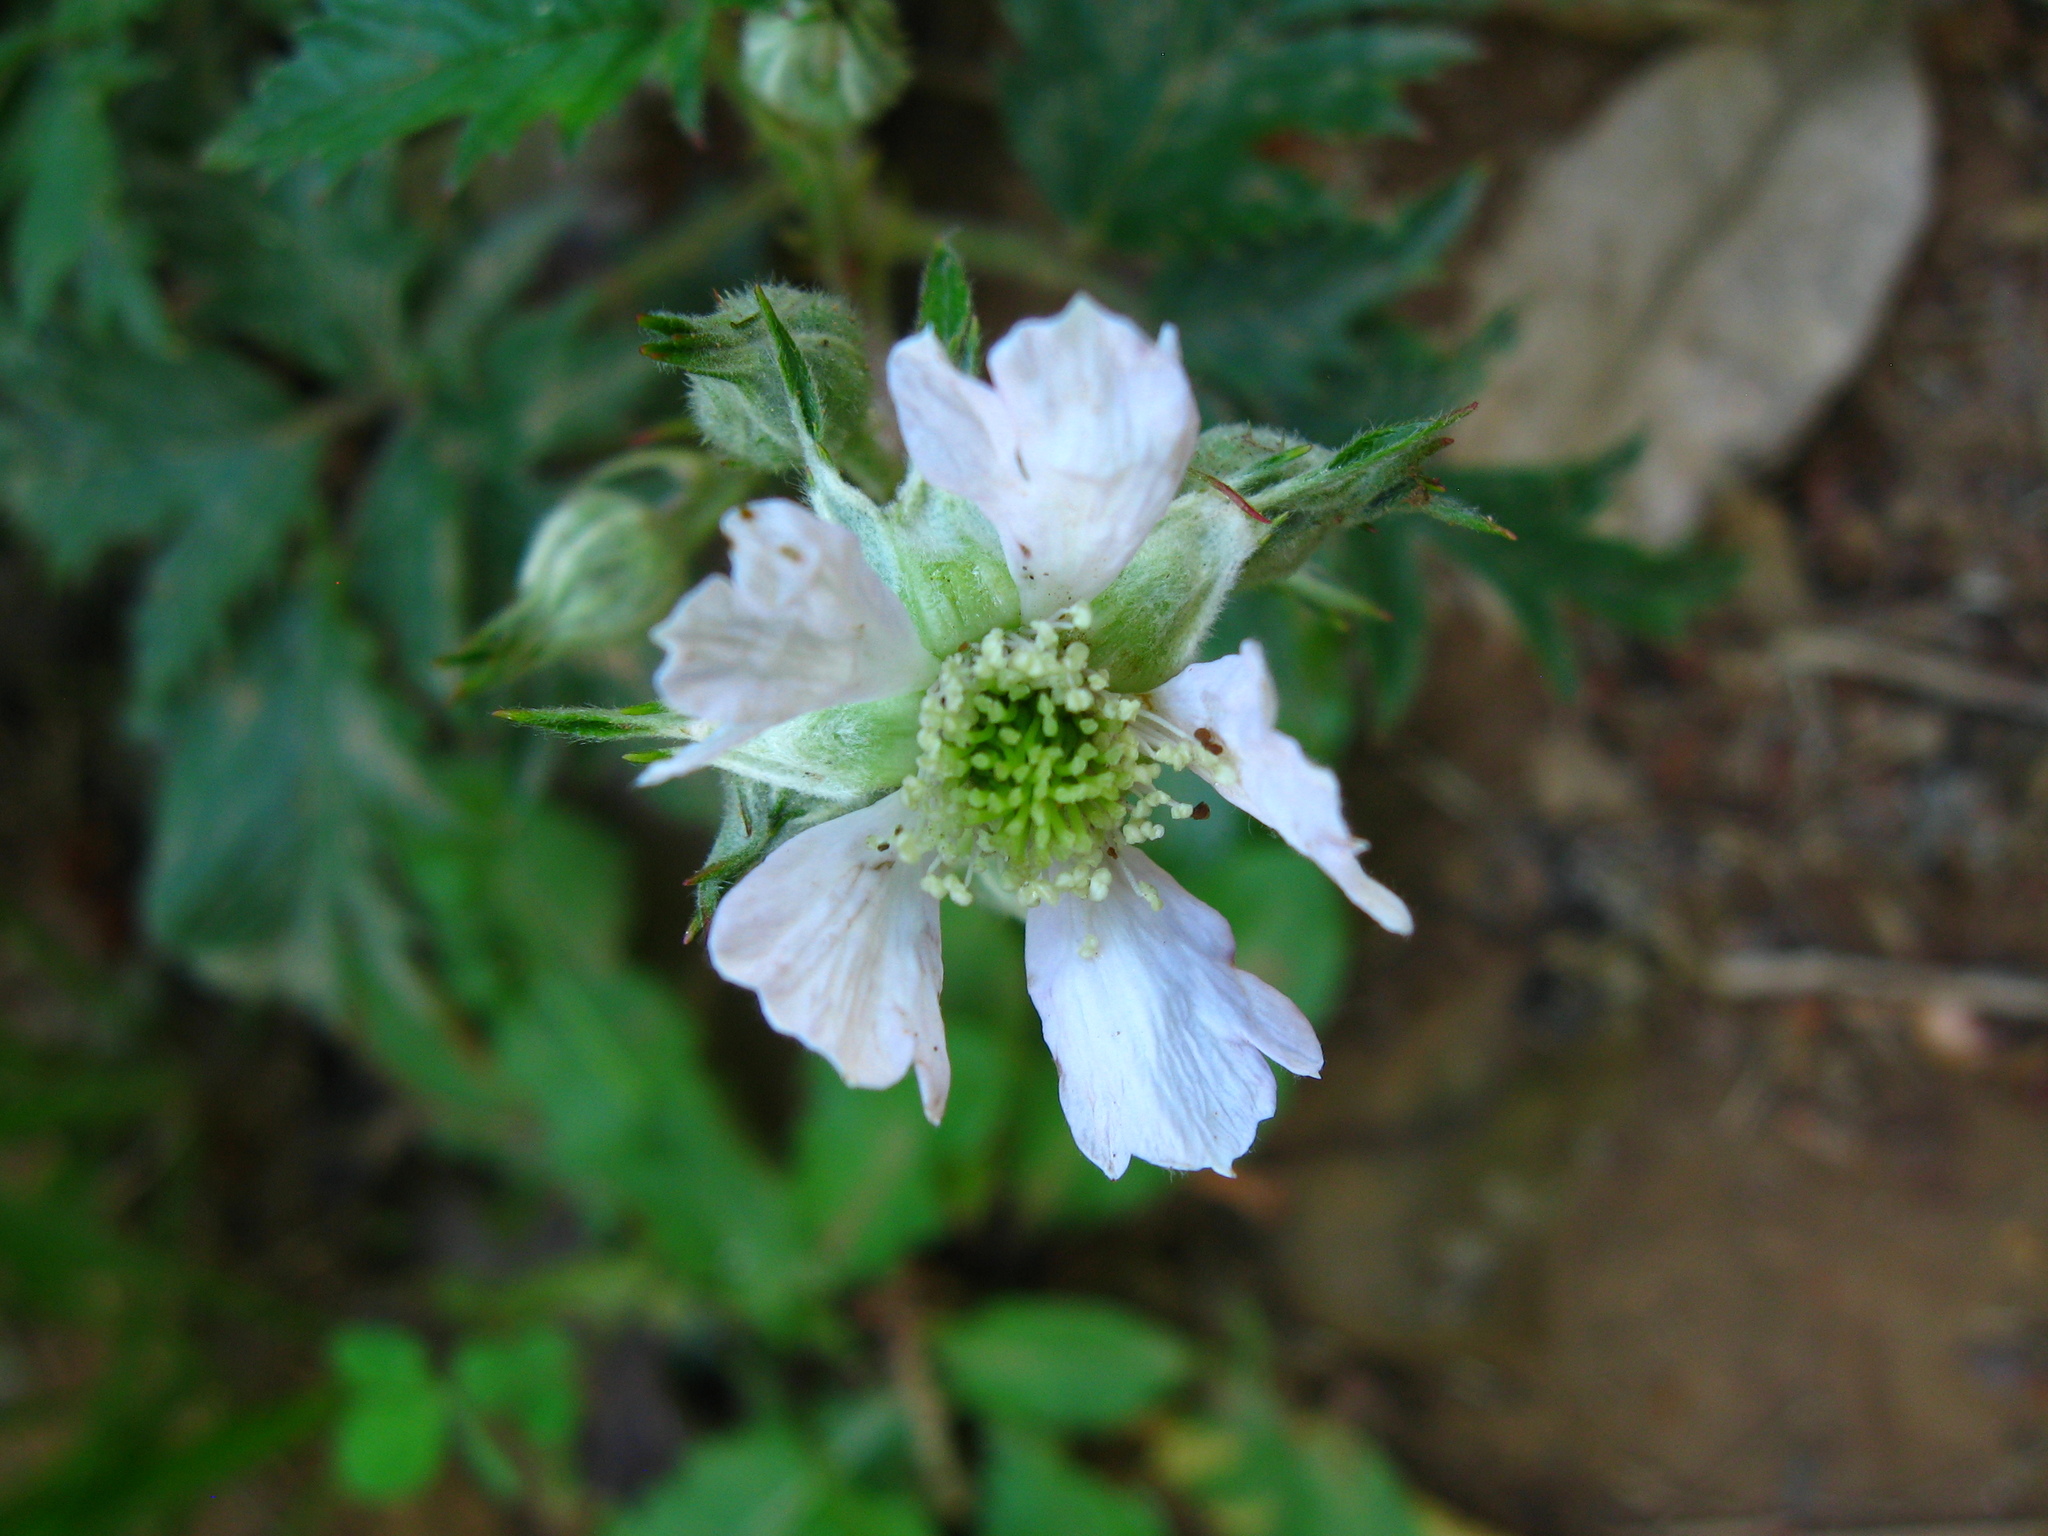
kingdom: Plantae
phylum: Tracheophyta
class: Magnoliopsida
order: Rosales
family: Rosaceae
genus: Rubus
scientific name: Rubus laciniatus
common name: Evergreen blackberry
